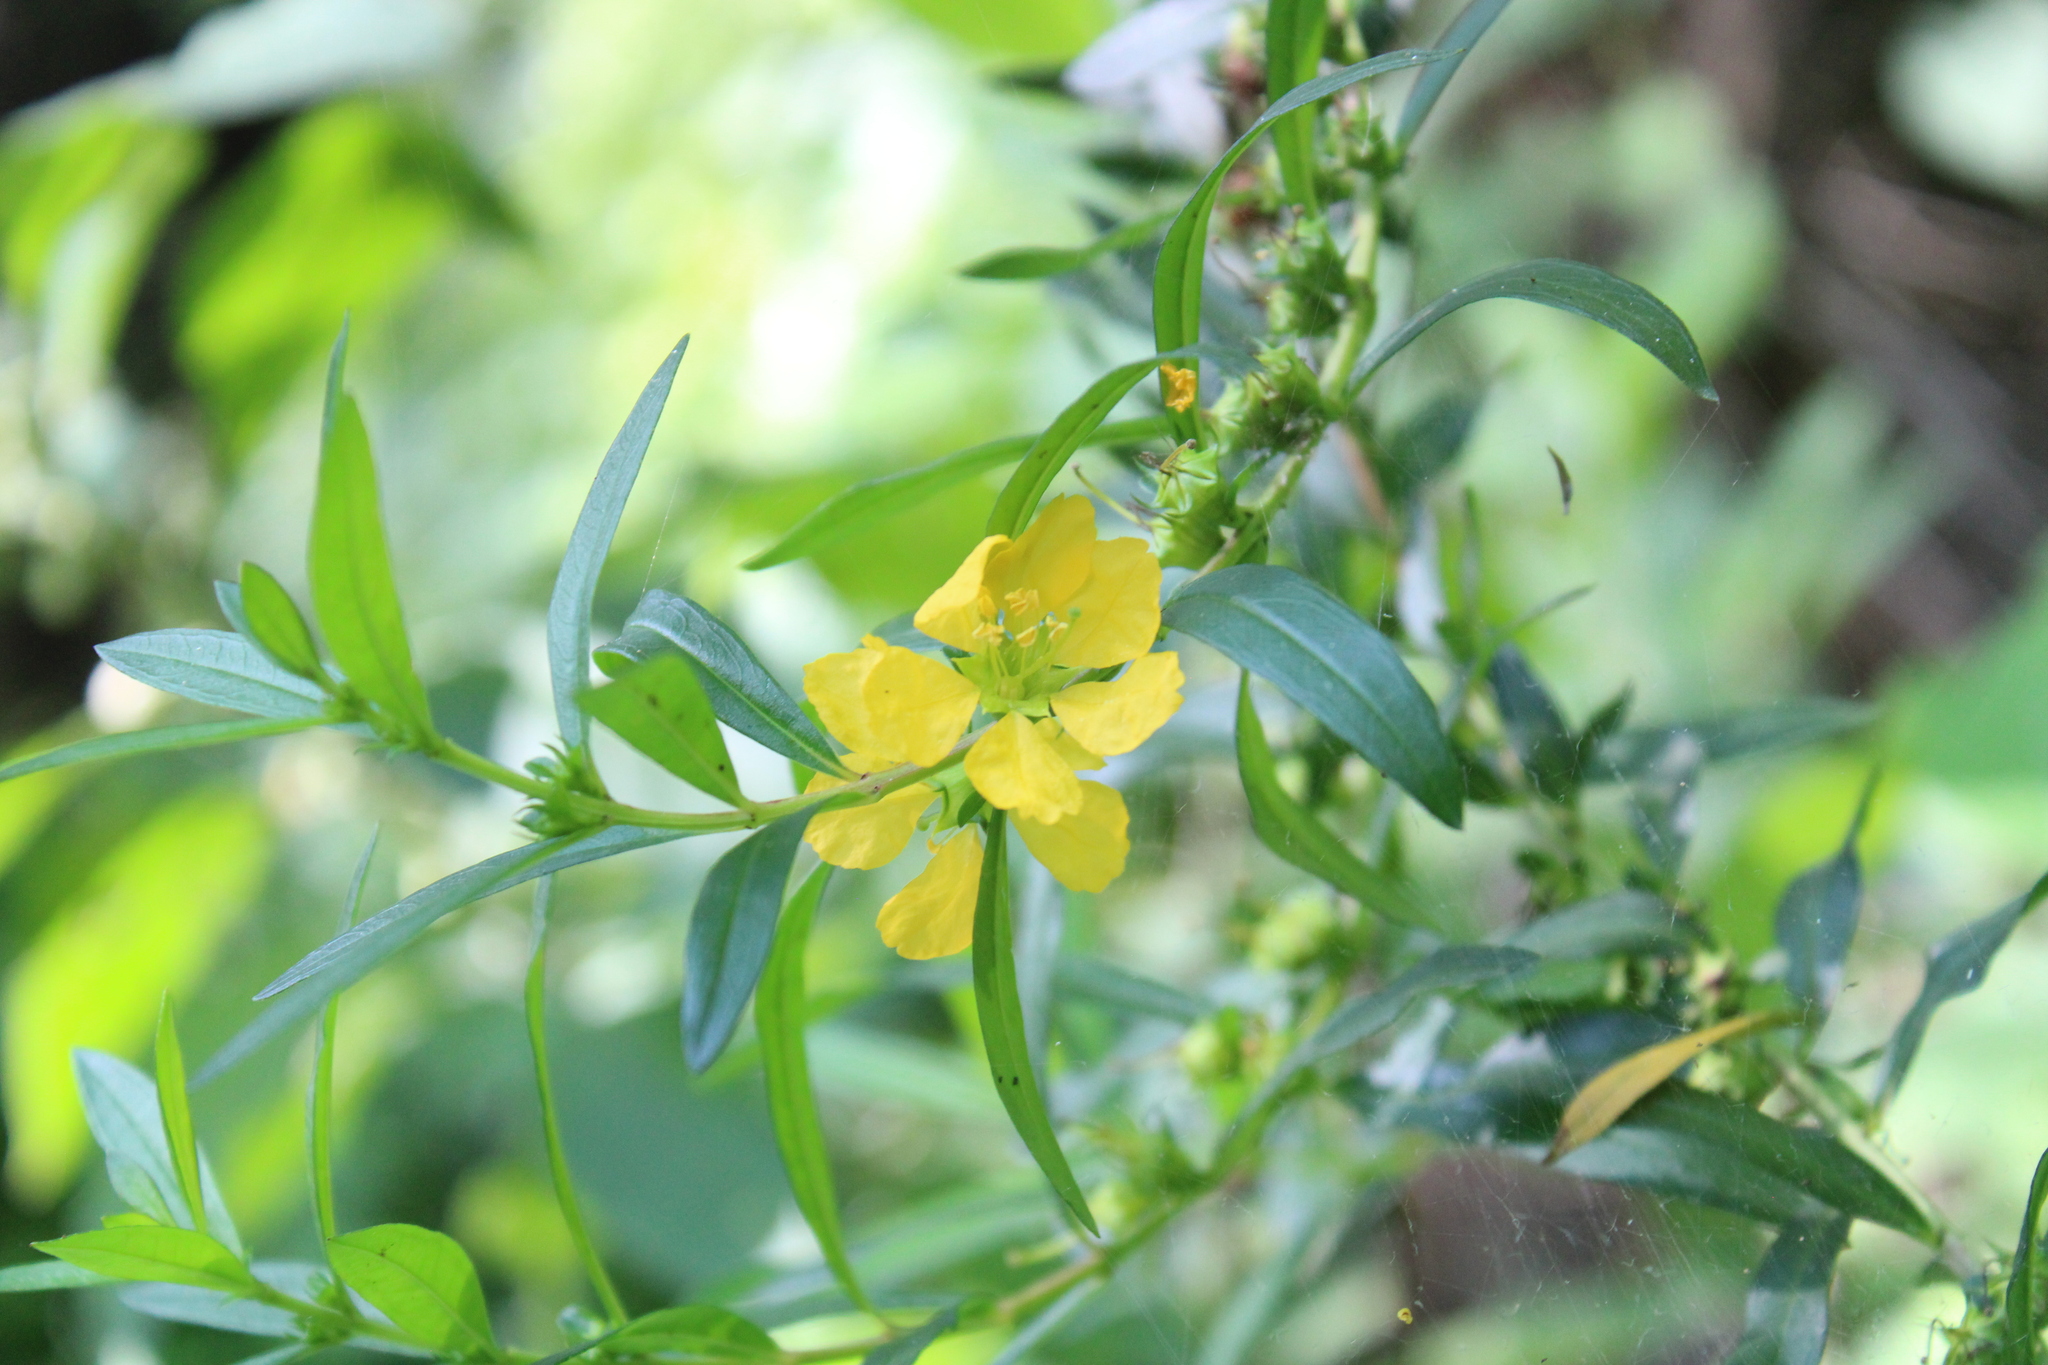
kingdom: Plantae
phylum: Tracheophyta
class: Magnoliopsida
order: Myrtales
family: Lythraceae
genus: Heimia
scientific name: Heimia salicifolia
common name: Willow-leaf heimia
